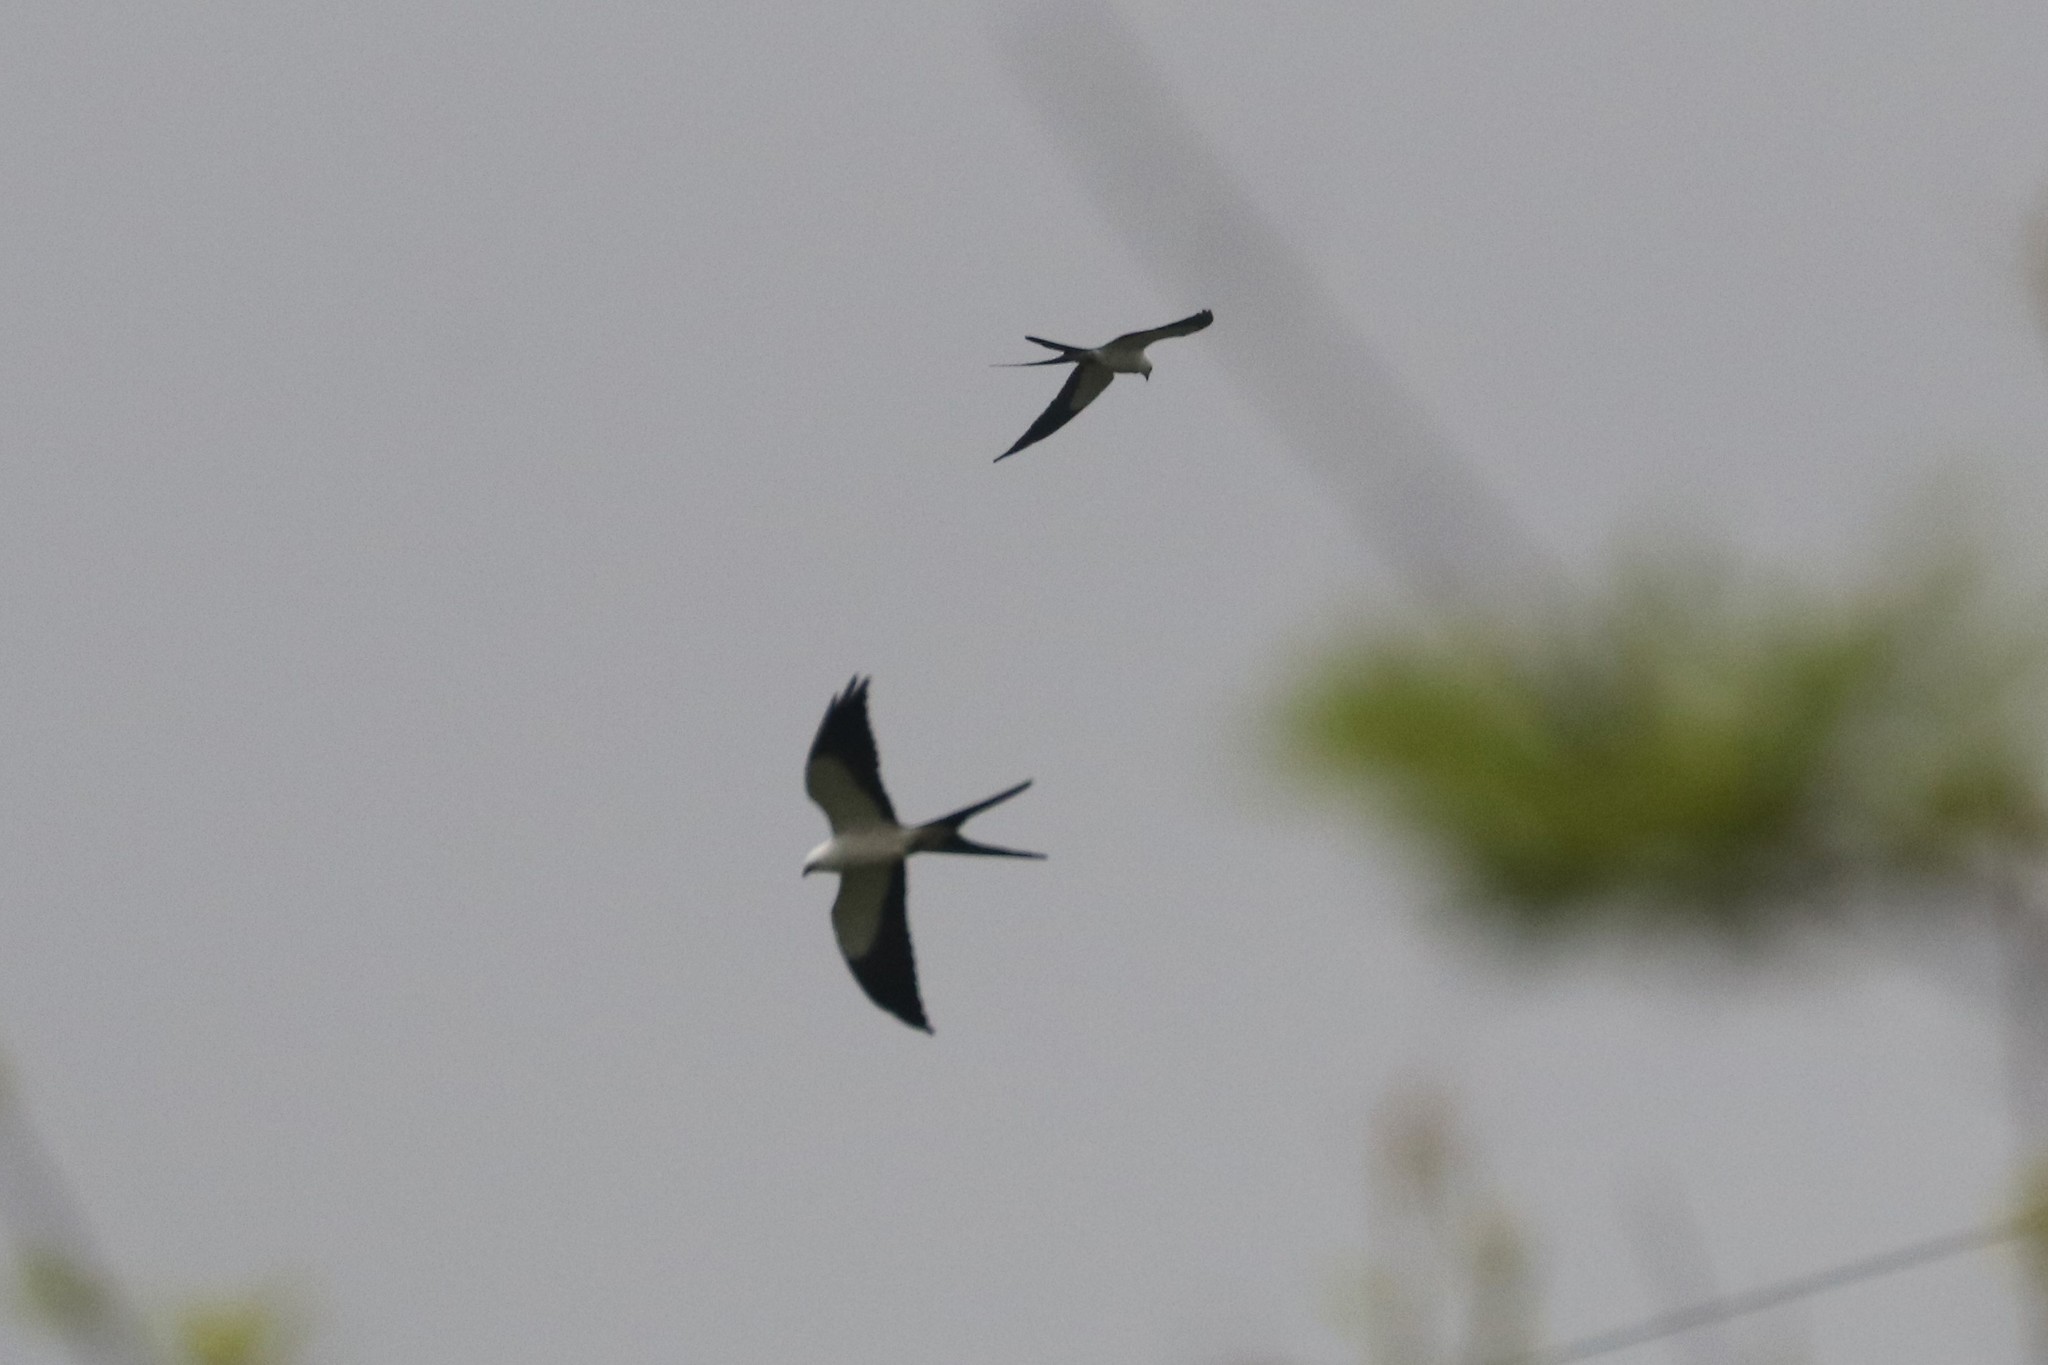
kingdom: Animalia
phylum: Chordata
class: Aves
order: Accipitriformes
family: Accipitridae
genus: Elanoides
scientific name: Elanoides forficatus
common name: Swallow-tailed kite
